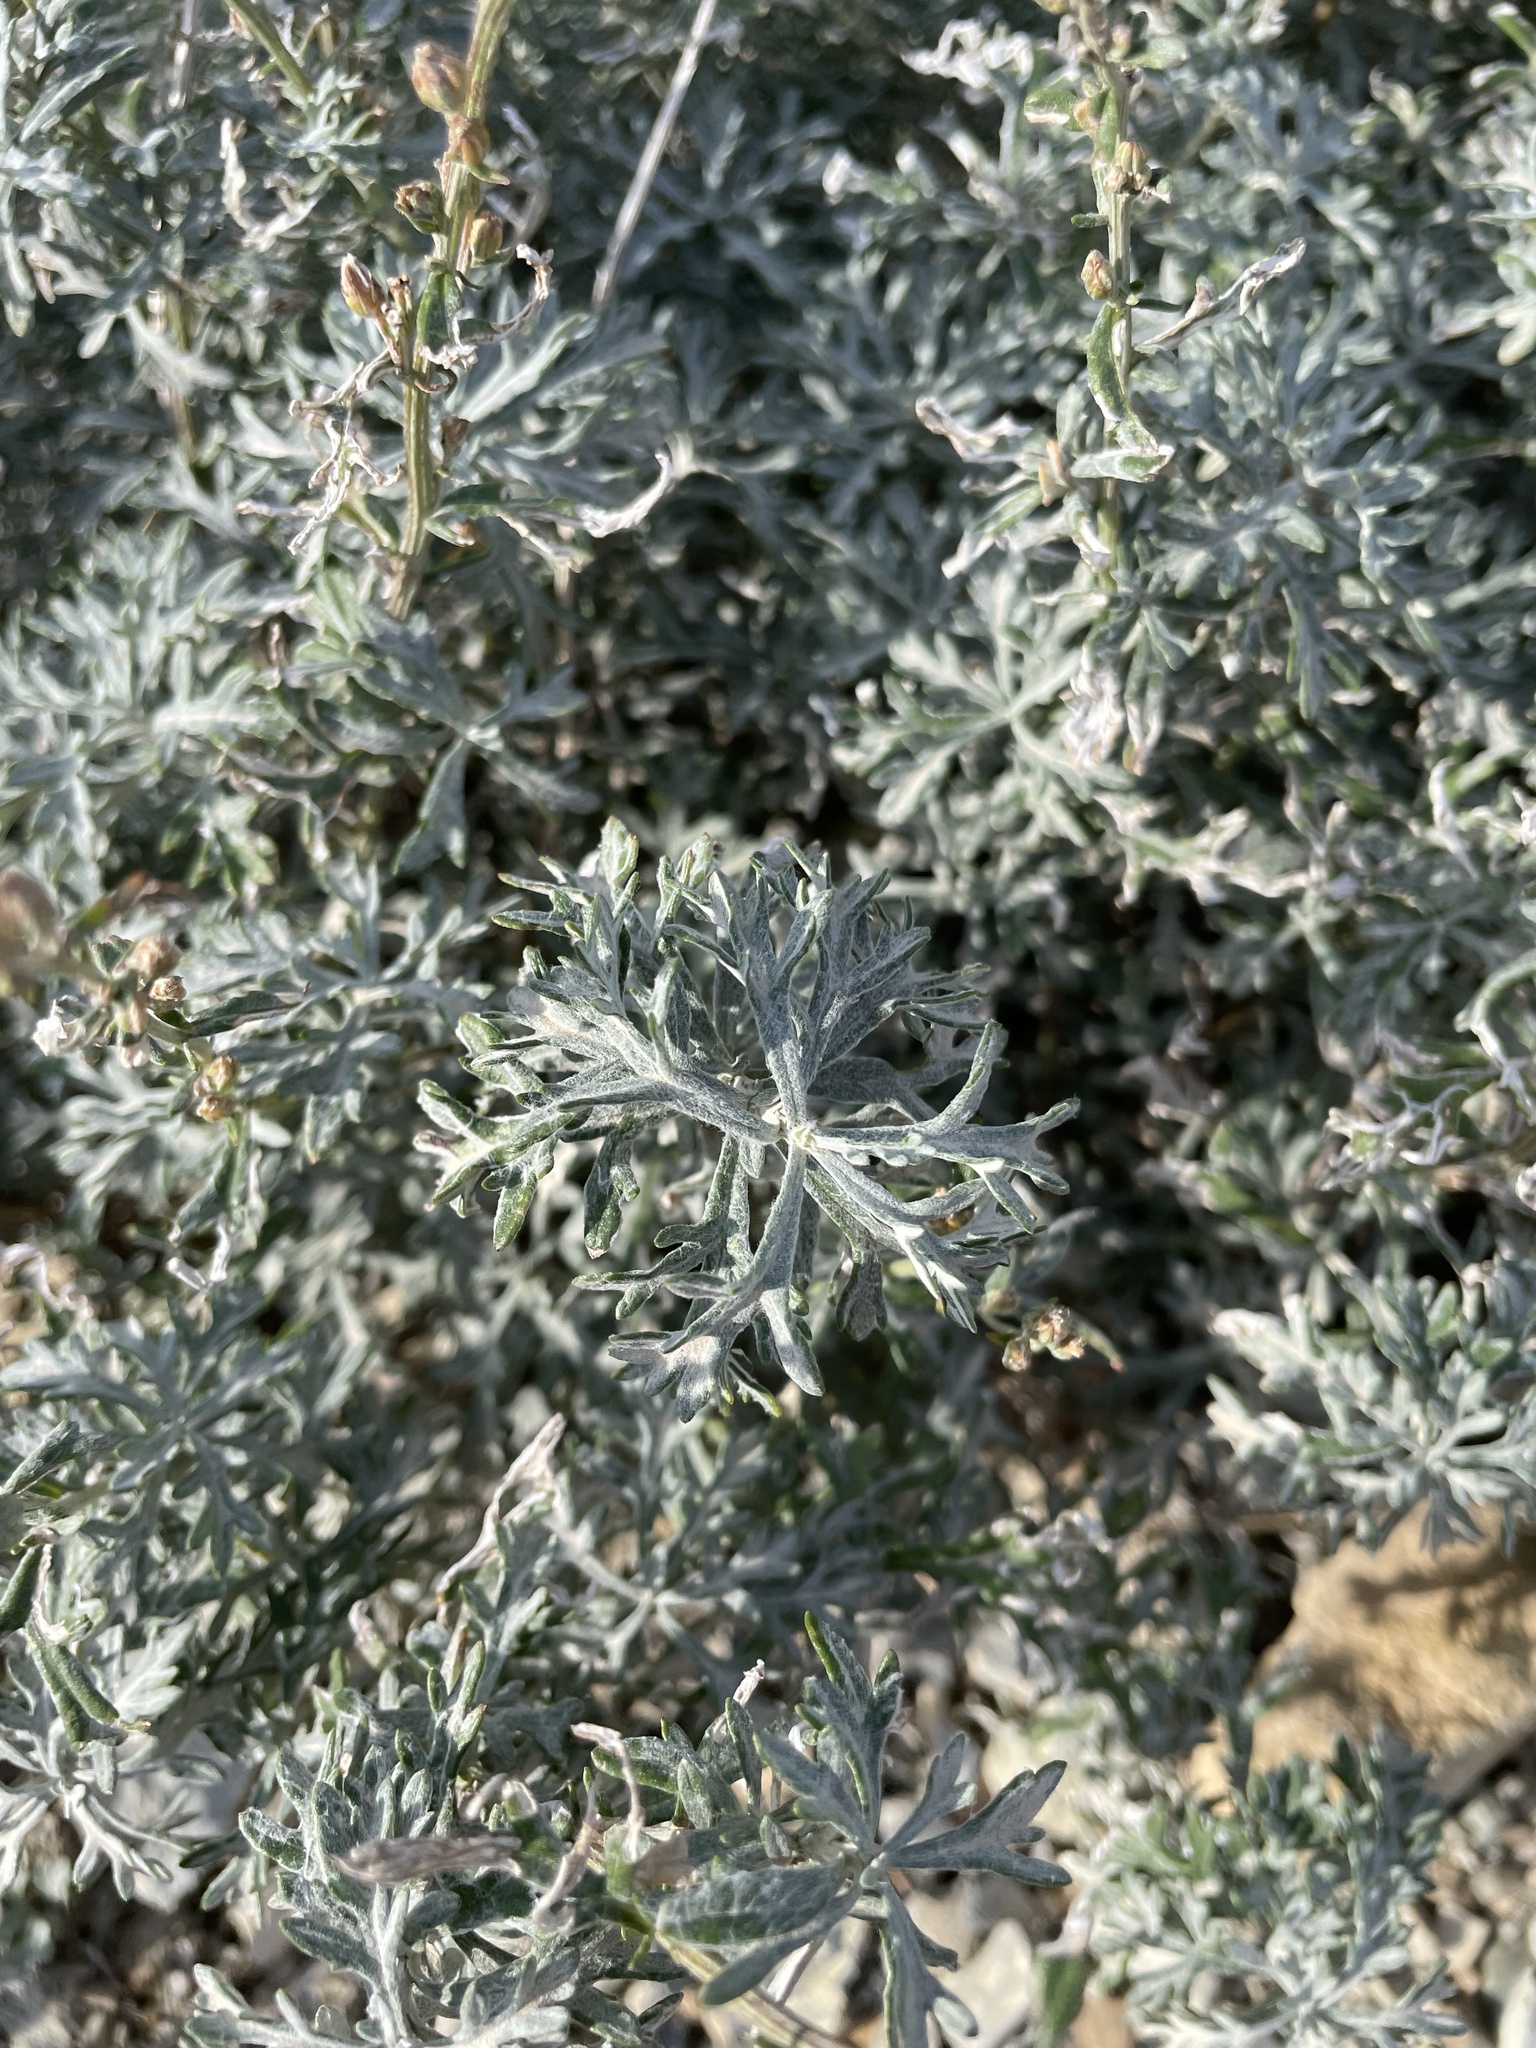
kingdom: Plantae
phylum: Tracheophyta
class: Magnoliopsida
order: Asterales
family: Asteraceae
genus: Artemisia
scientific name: Artemisia michauxiana
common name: Lemon sagewort
